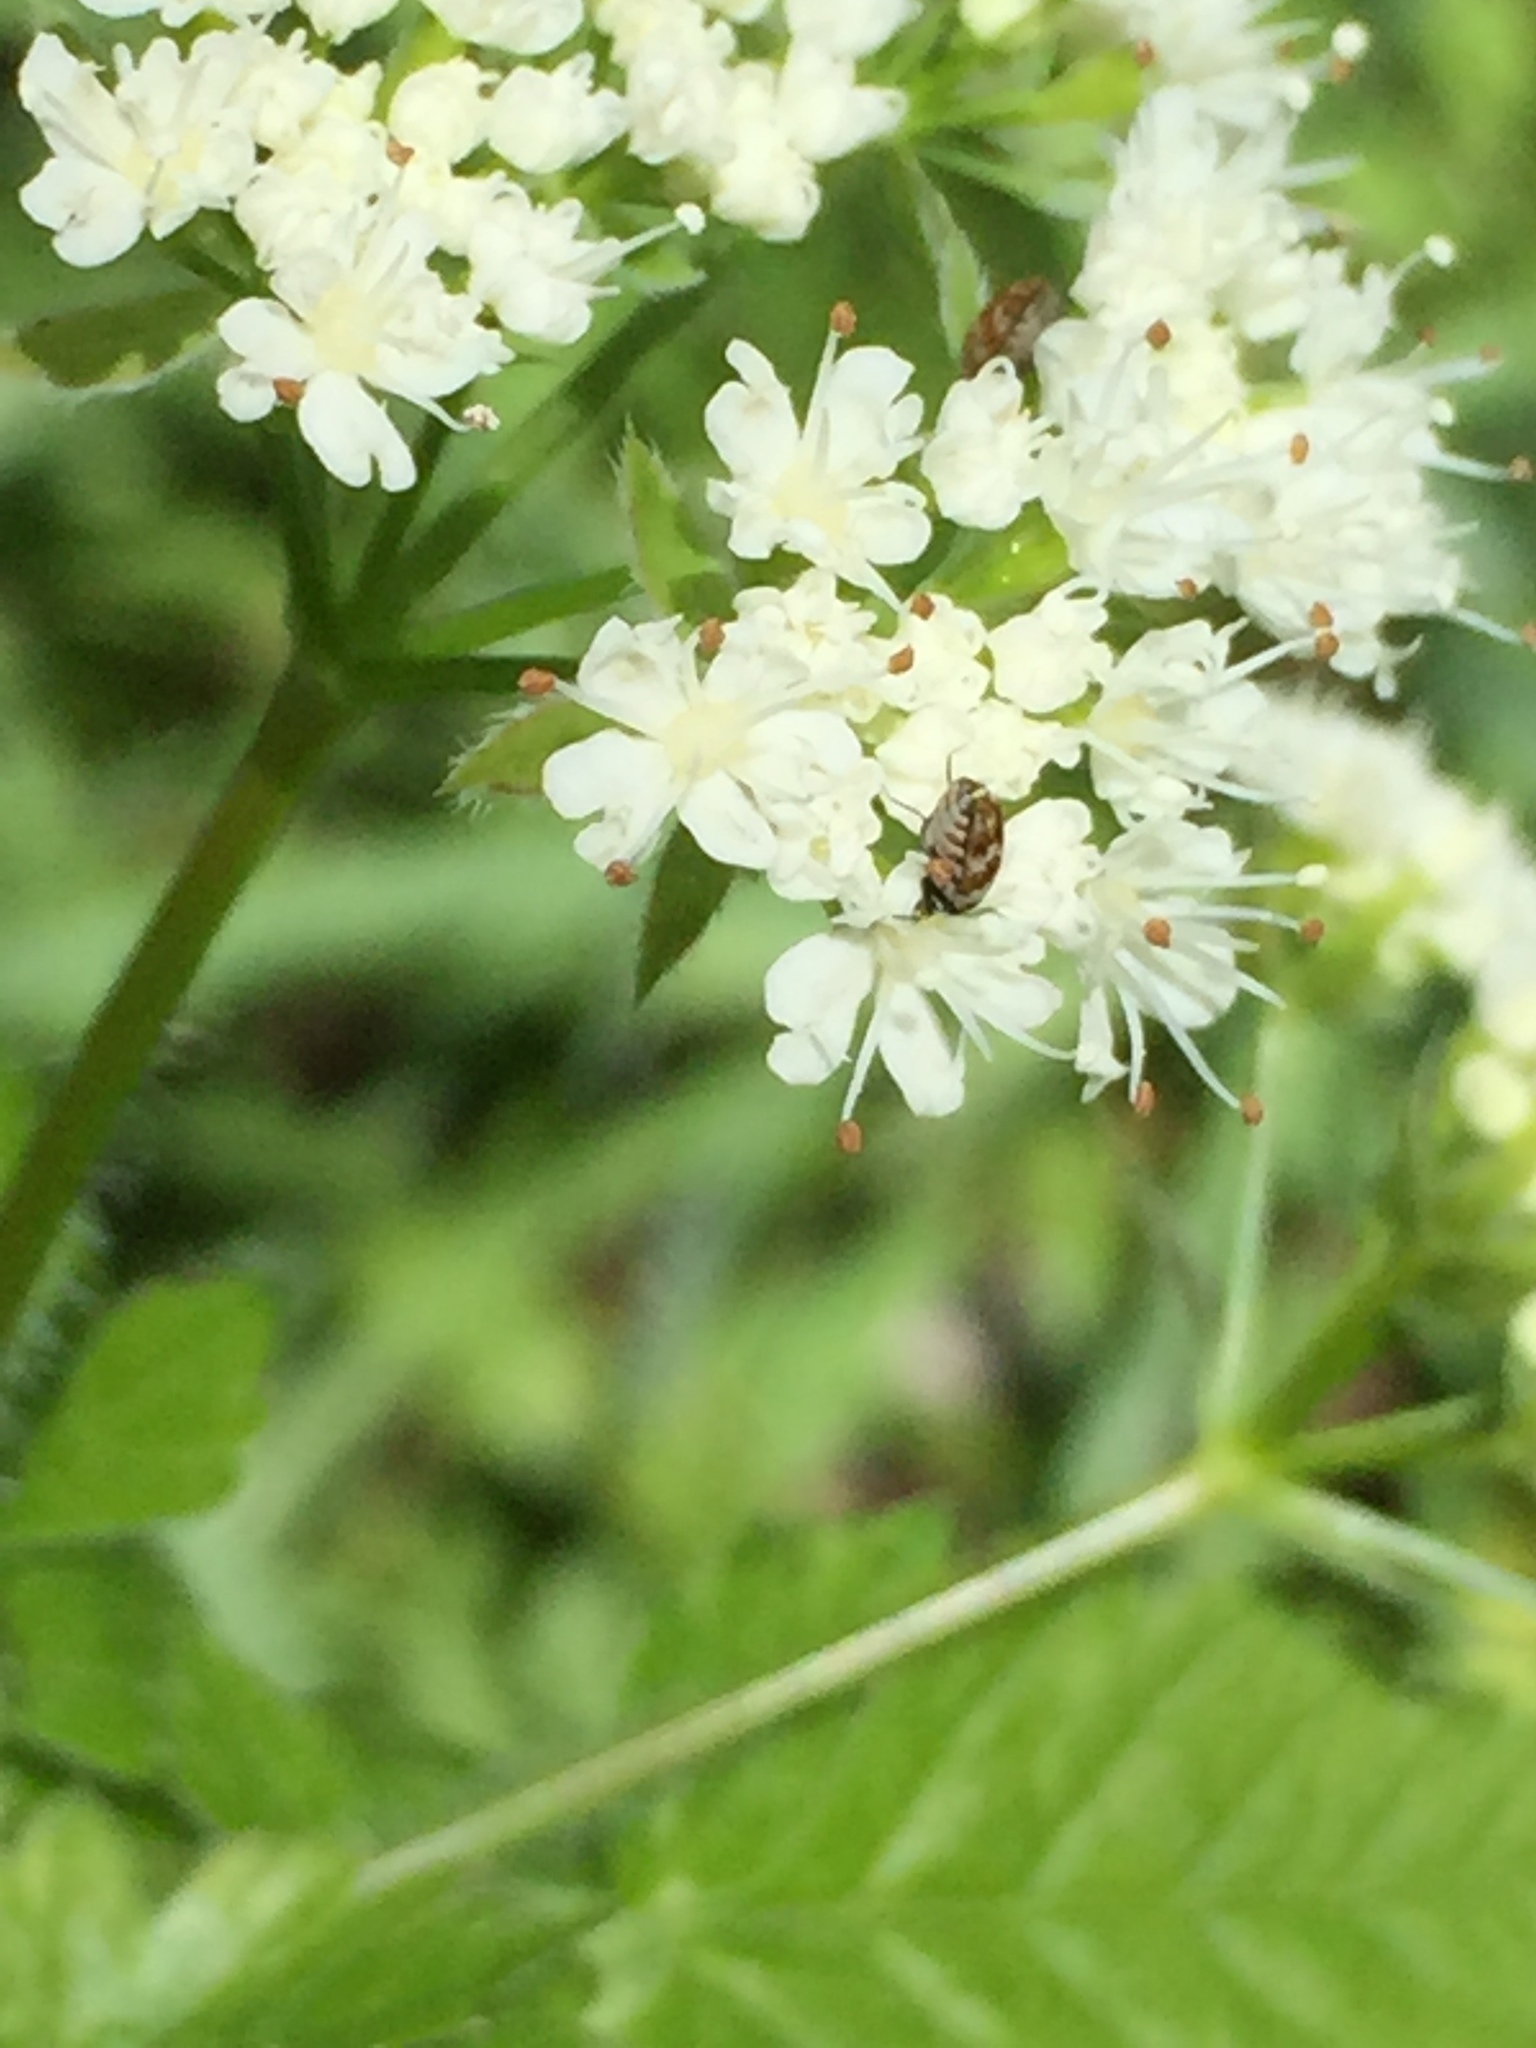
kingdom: Animalia
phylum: Arthropoda
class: Insecta
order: Coleoptera
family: Dermestidae
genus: Anthrenus
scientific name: Anthrenus verbasci
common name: Varied carpet beetle
